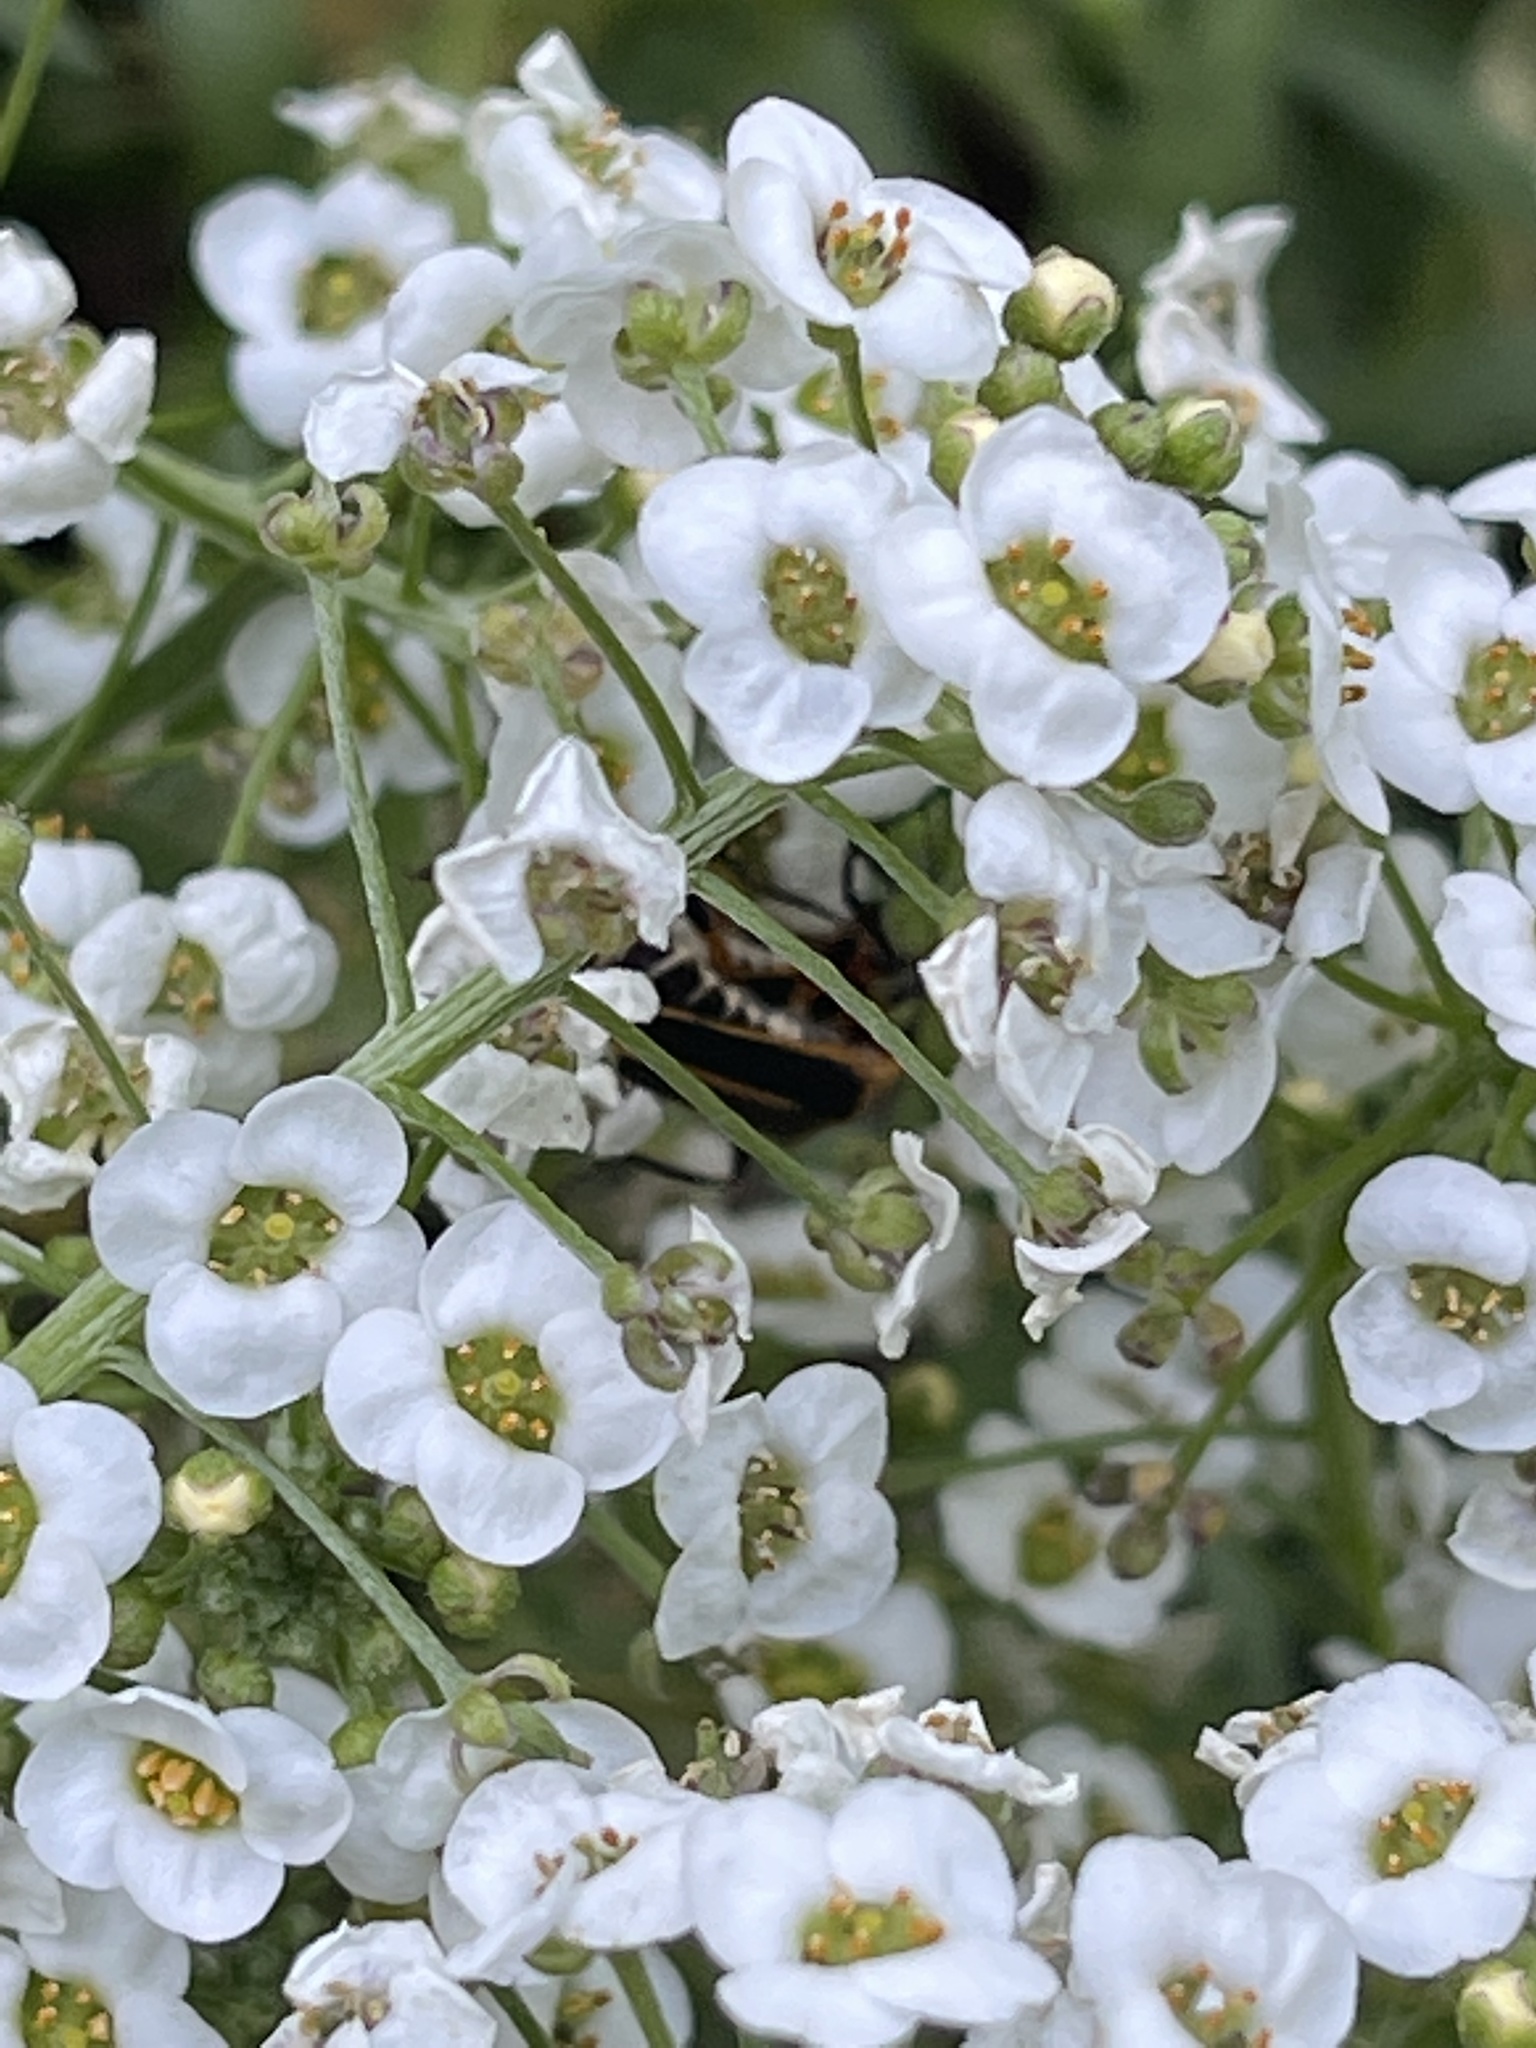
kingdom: Animalia
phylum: Arthropoda
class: Insecta
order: Coleoptera
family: Cantharidae
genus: Chauliognathus
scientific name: Chauliognathus marginatus
